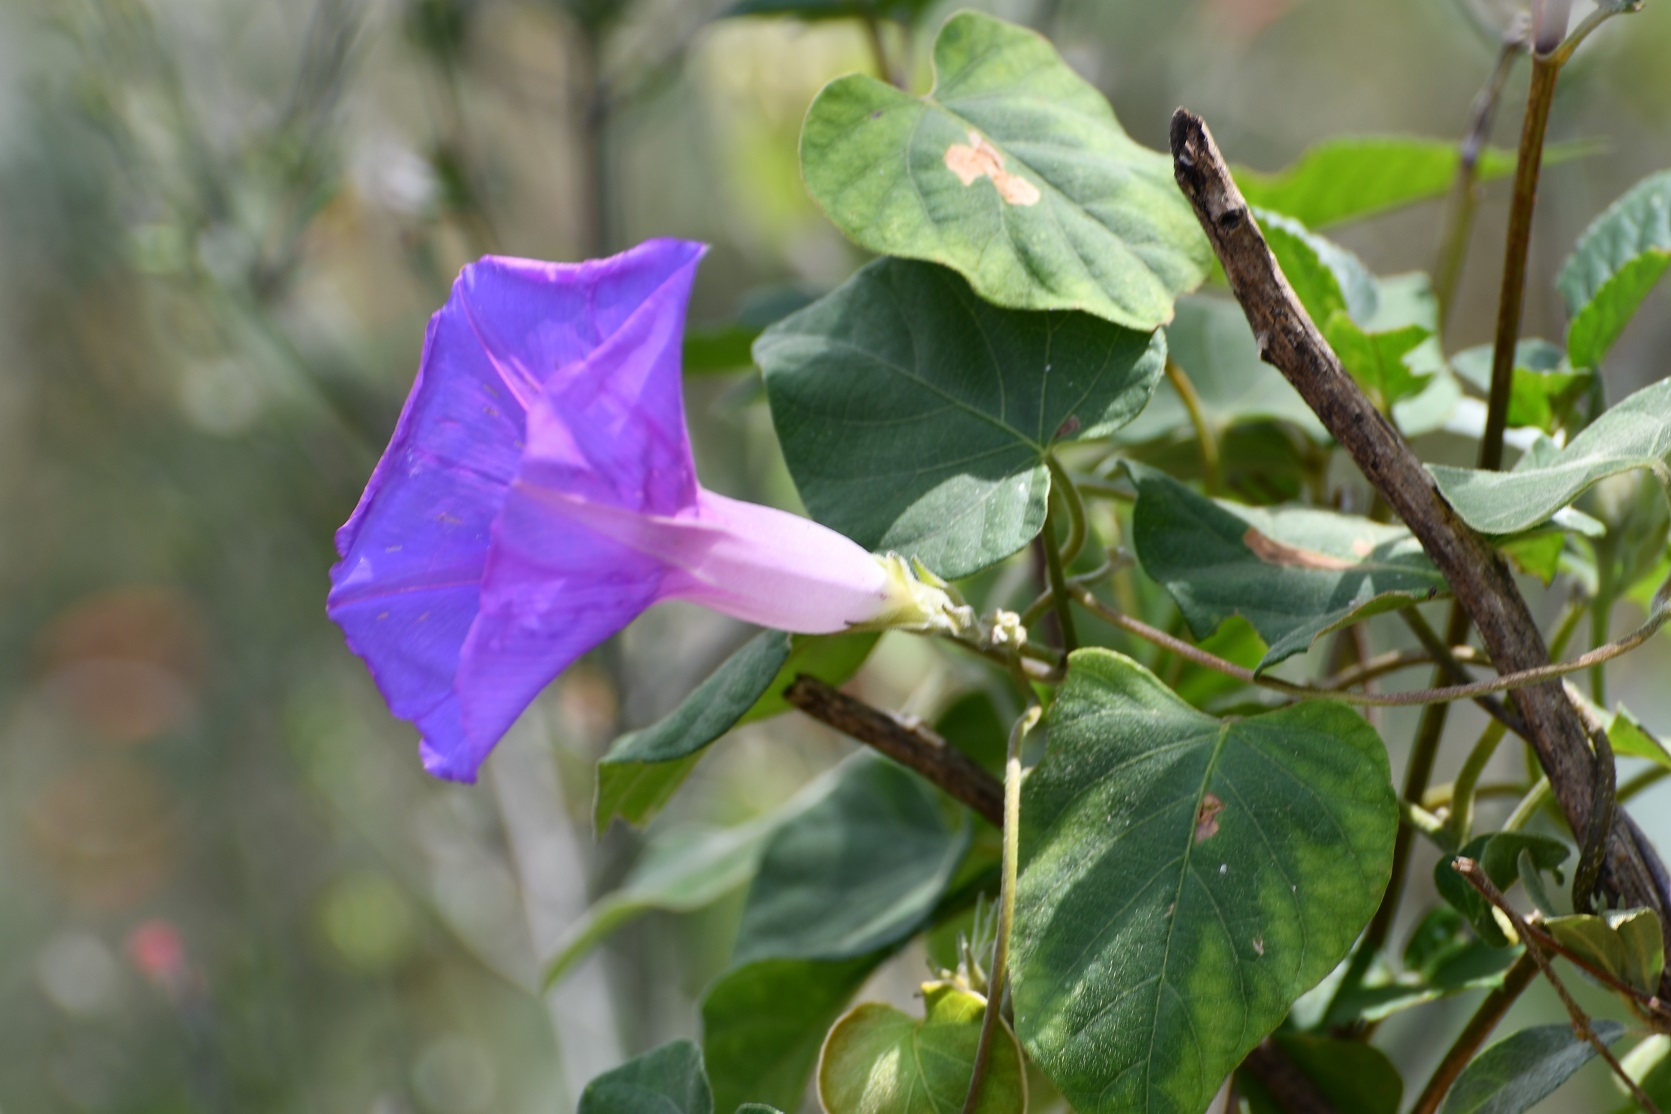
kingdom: Plantae
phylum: Tracheophyta
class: Magnoliopsida
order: Solanales
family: Convolvulaceae
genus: Ipomoea
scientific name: Ipomoea mitchelliae
